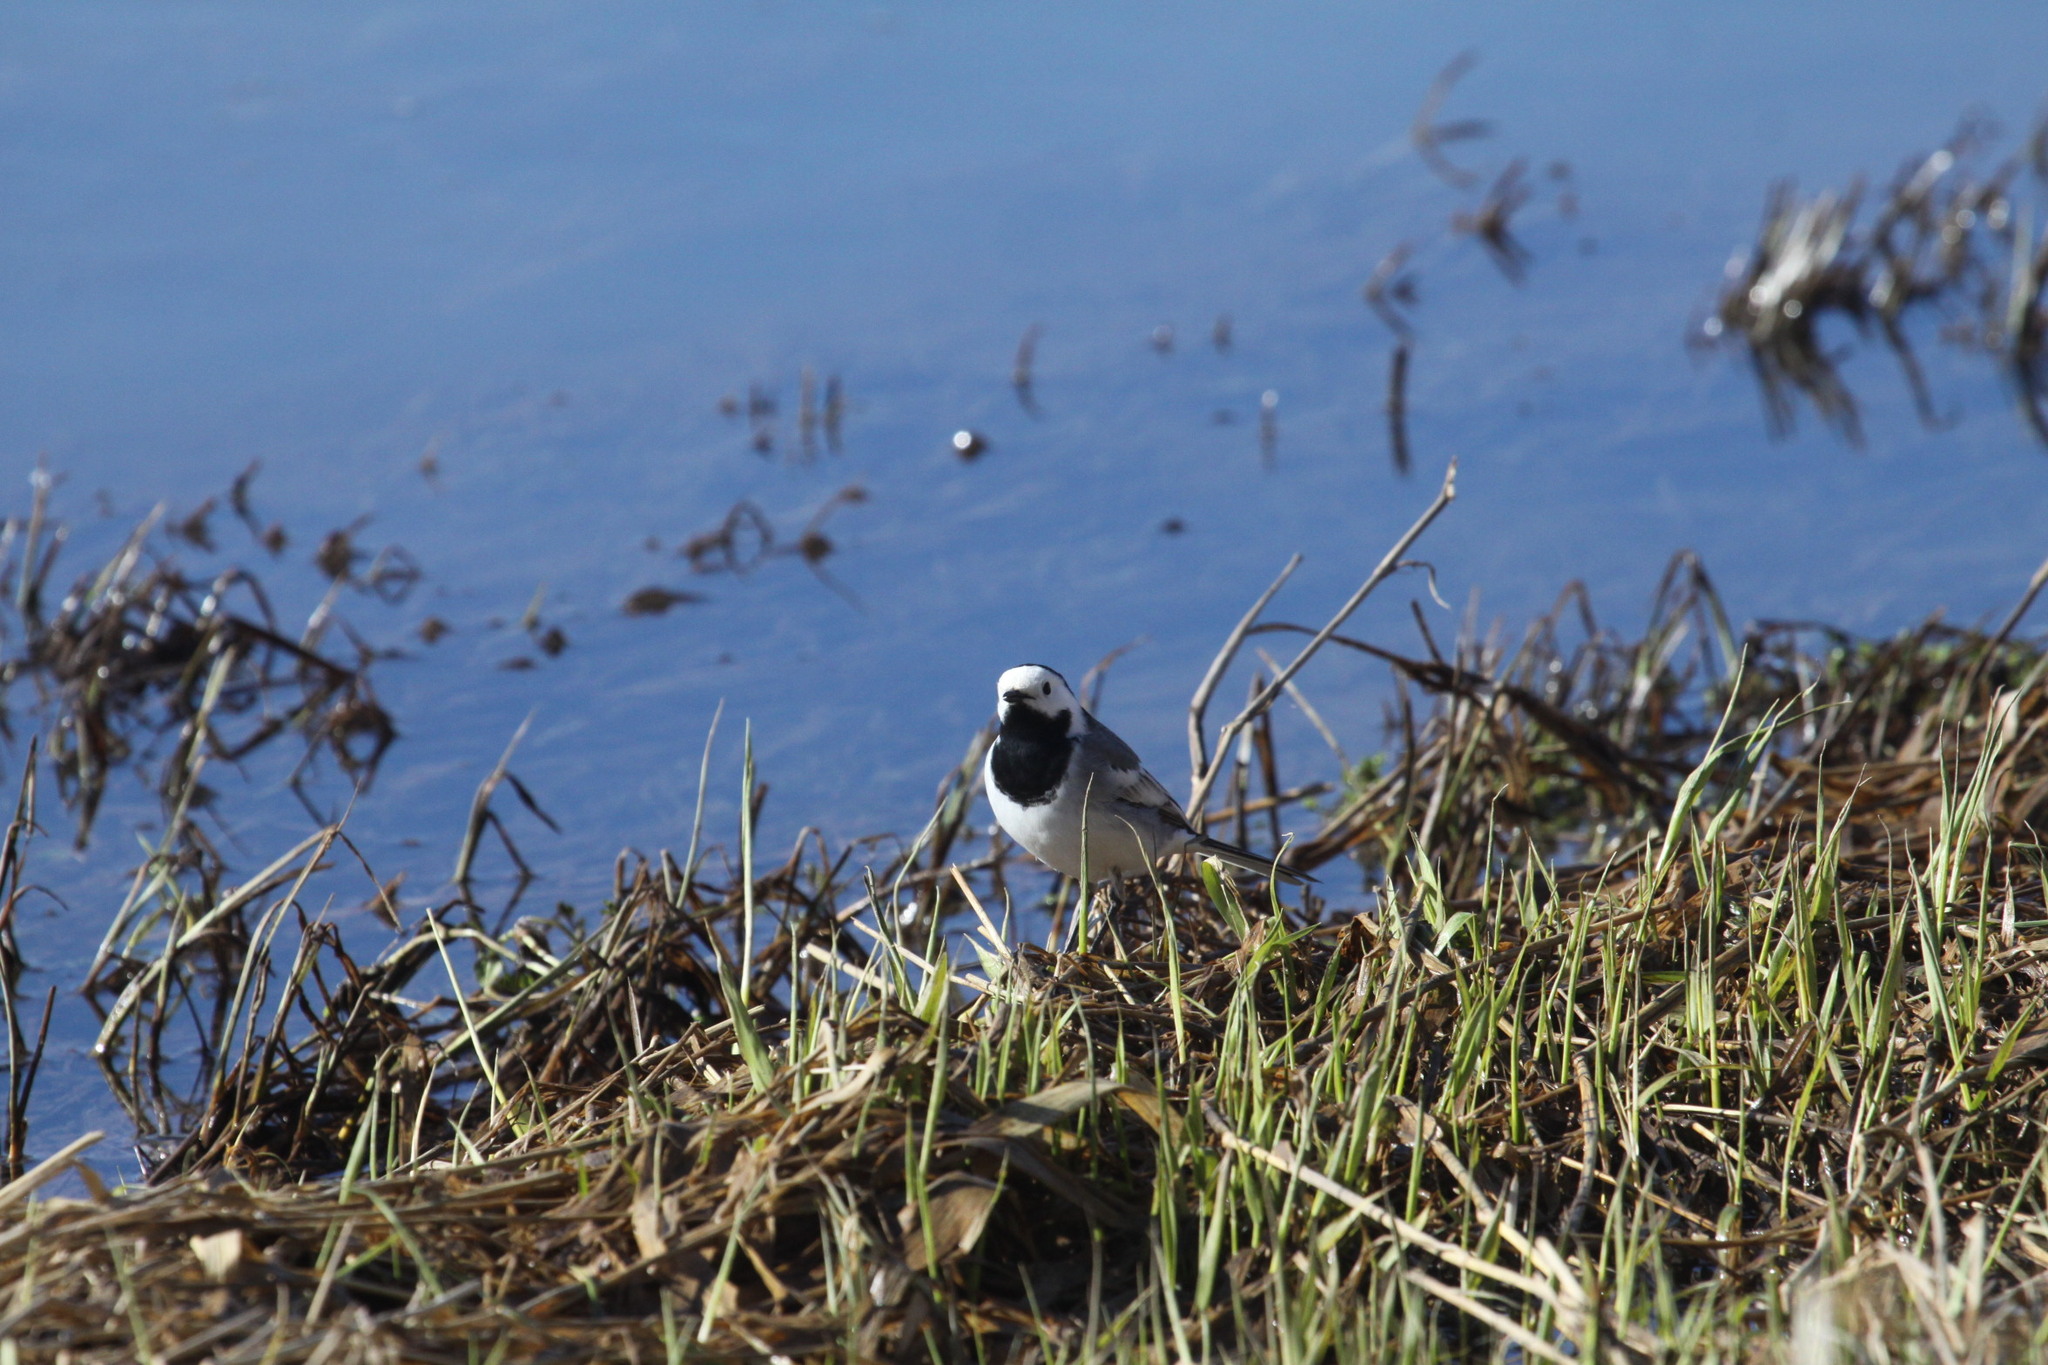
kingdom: Animalia
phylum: Chordata
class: Aves
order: Passeriformes
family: Motacillidae
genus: Motacilla
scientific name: Motacilla alba
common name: White wagtail
